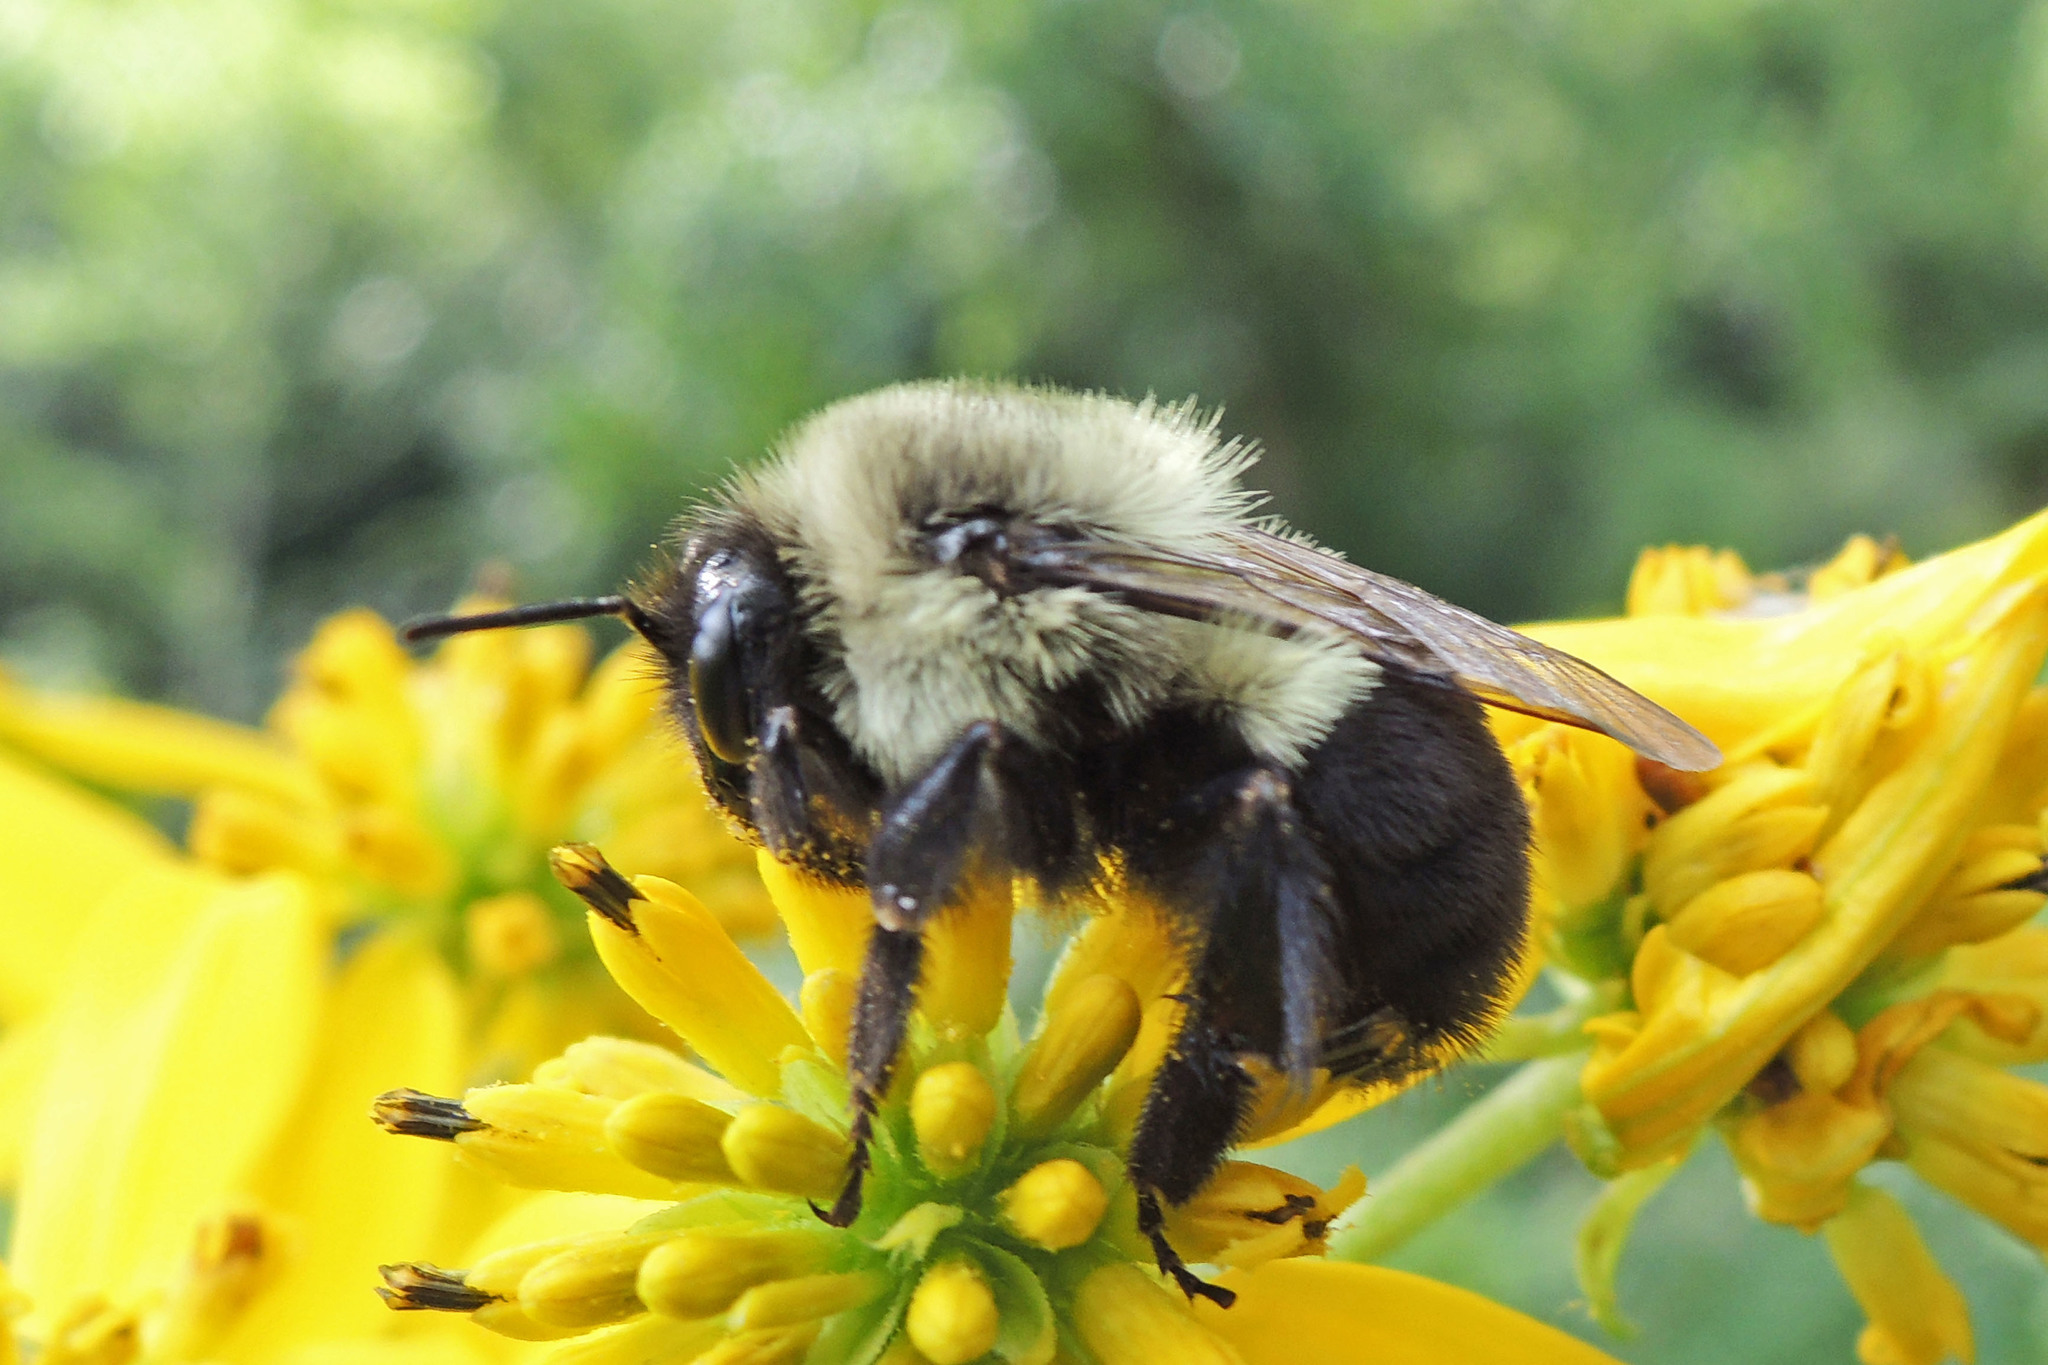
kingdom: Animalia
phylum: Arthropoda
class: Insecta
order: Hymenoptera
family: Apidae
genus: Bombus
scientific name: Bombus impatiens
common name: Common eastern bumble bee
